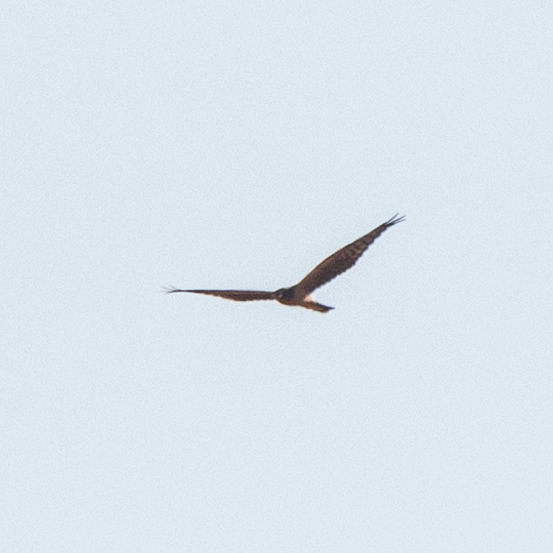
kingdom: Animalia
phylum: Chordata
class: Aves
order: Accipitriformes
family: Accipitridae
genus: Circus
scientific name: Circus pygargus
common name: Montagu's harrier
